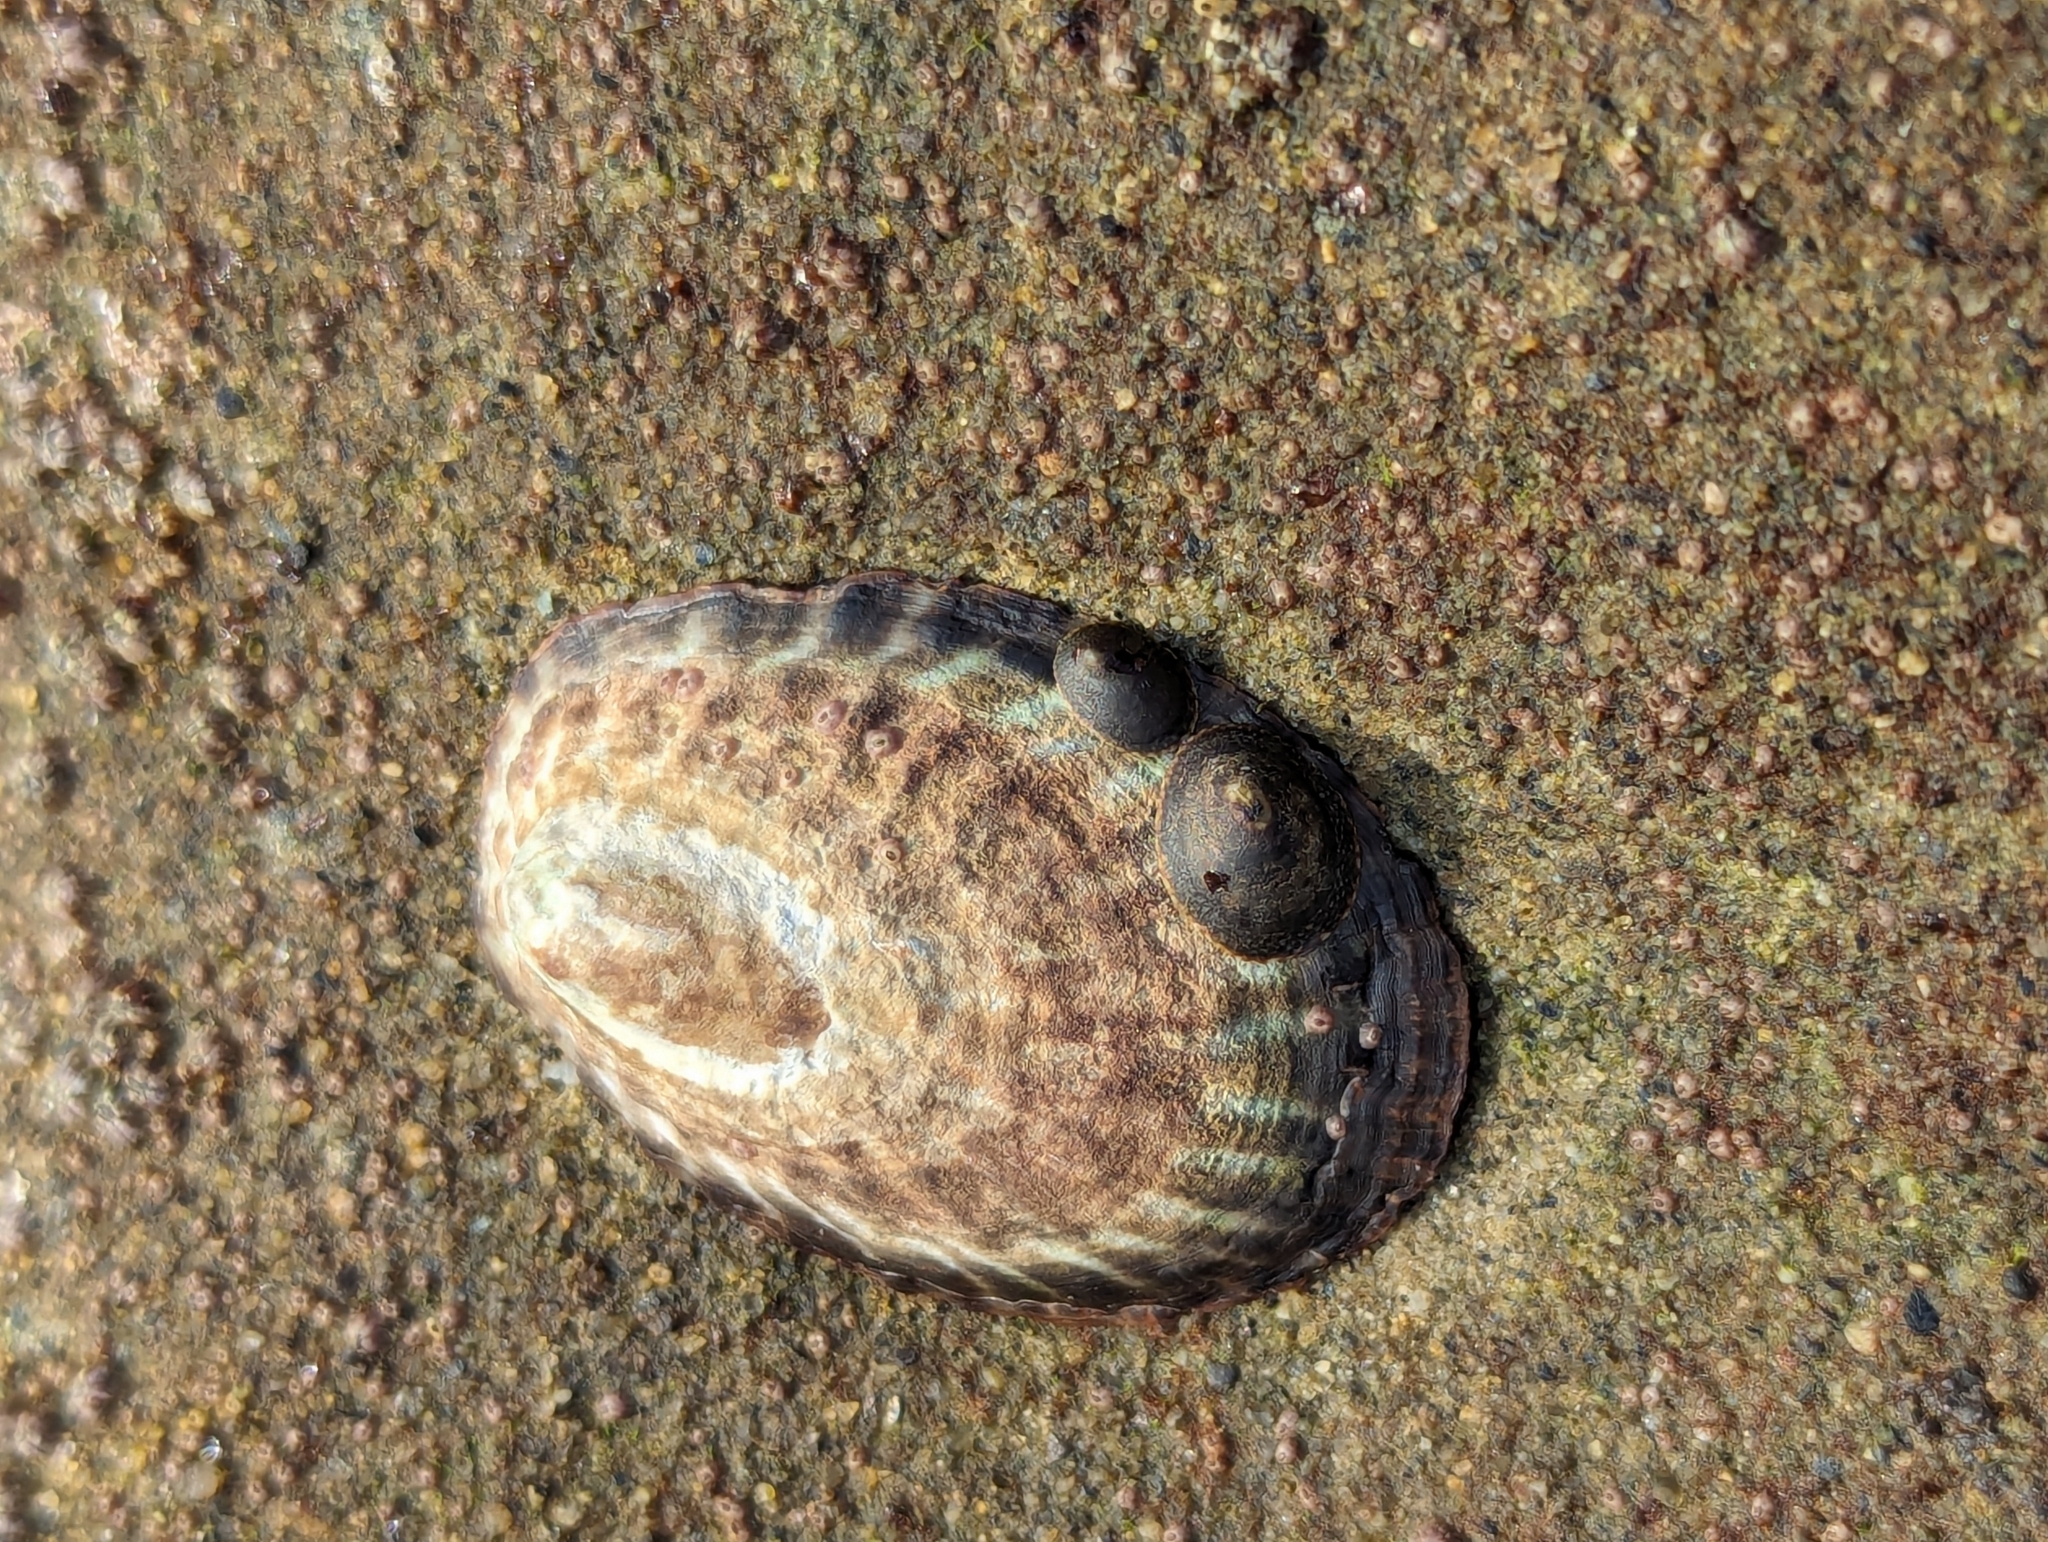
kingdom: Animalia
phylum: Mollusca
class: Gastropoda
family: Lottiidae
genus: Lottia
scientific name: Lottia gigantea
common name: Owl limpet
